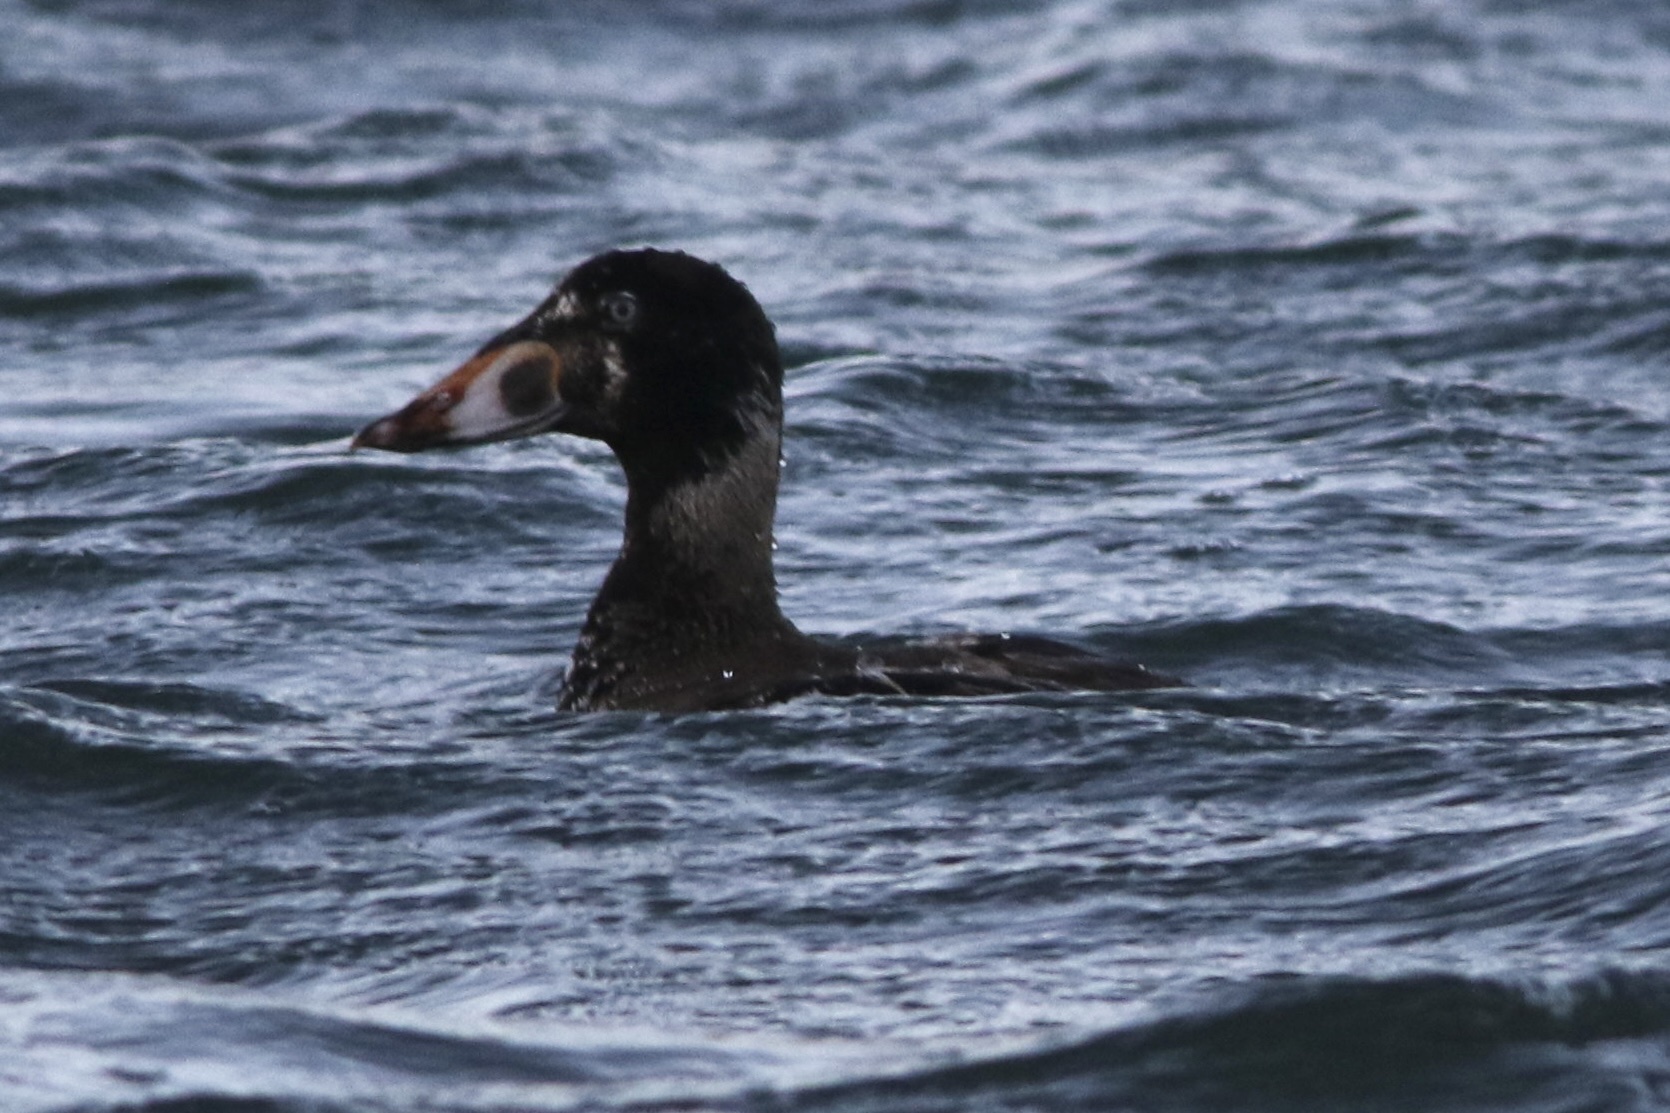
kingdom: Animalia
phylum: Chordata
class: Aves
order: Anseriformes
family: Anatidae
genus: Melanitta
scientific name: Melanitta perspicillata
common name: Surf scoter
